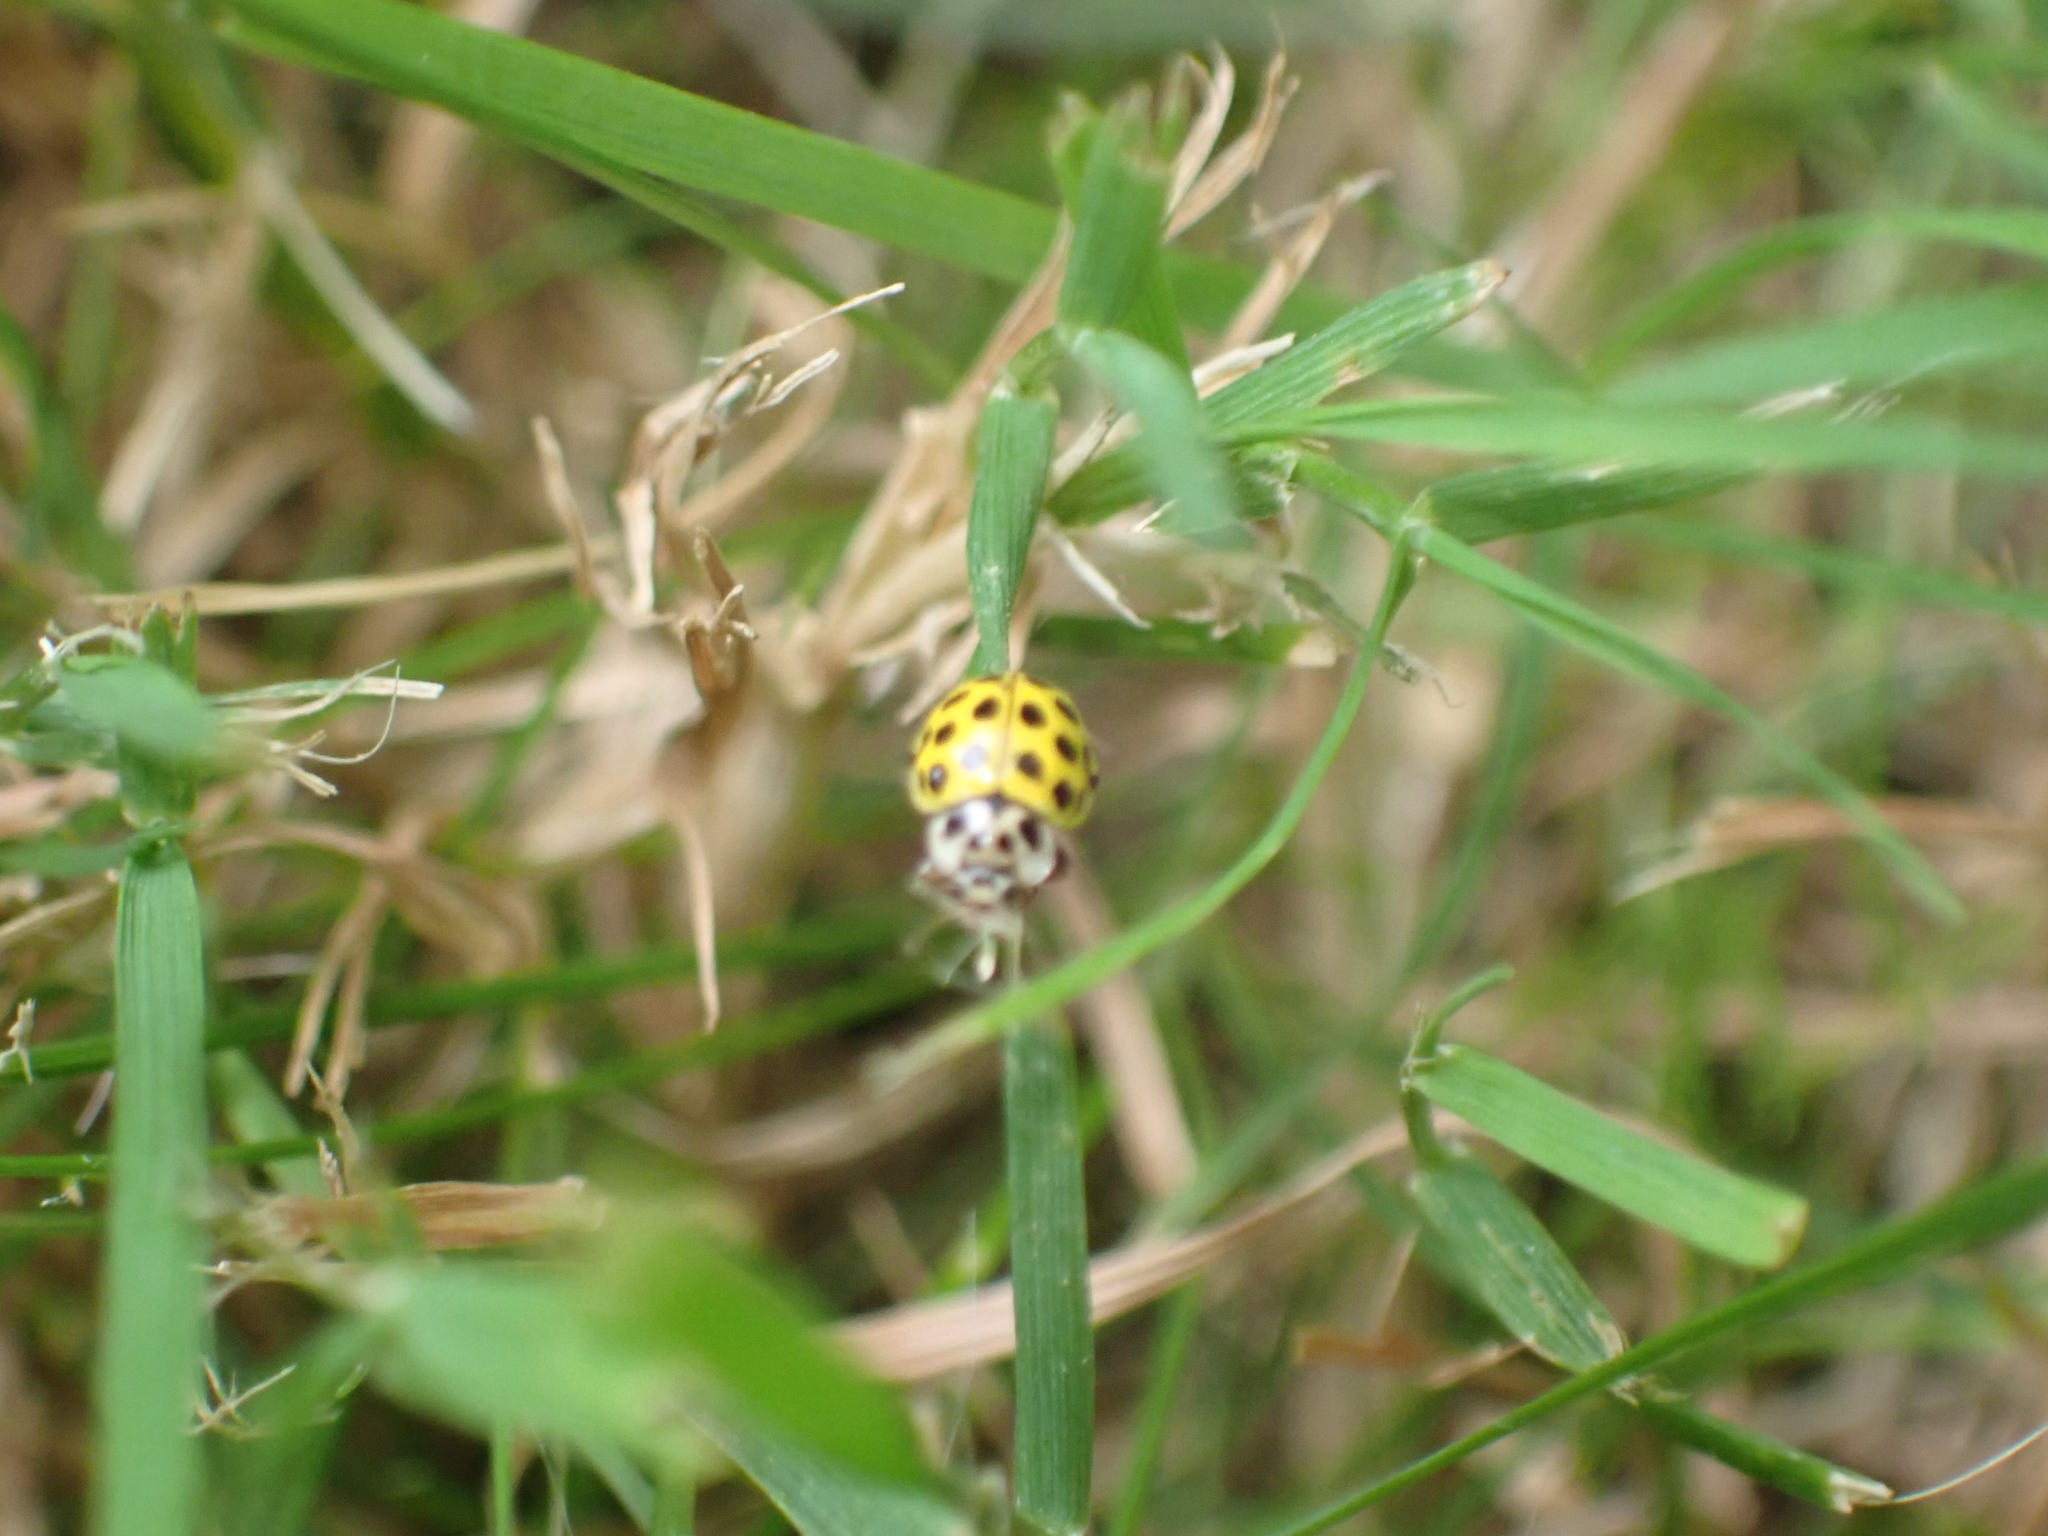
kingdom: Animalia
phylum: Arthropoda
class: Insecta
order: Coleoptera
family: Coccinellidae
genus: Psyllobora
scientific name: Psyllobora vigintiduopunctata
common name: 22-spot ladybird
